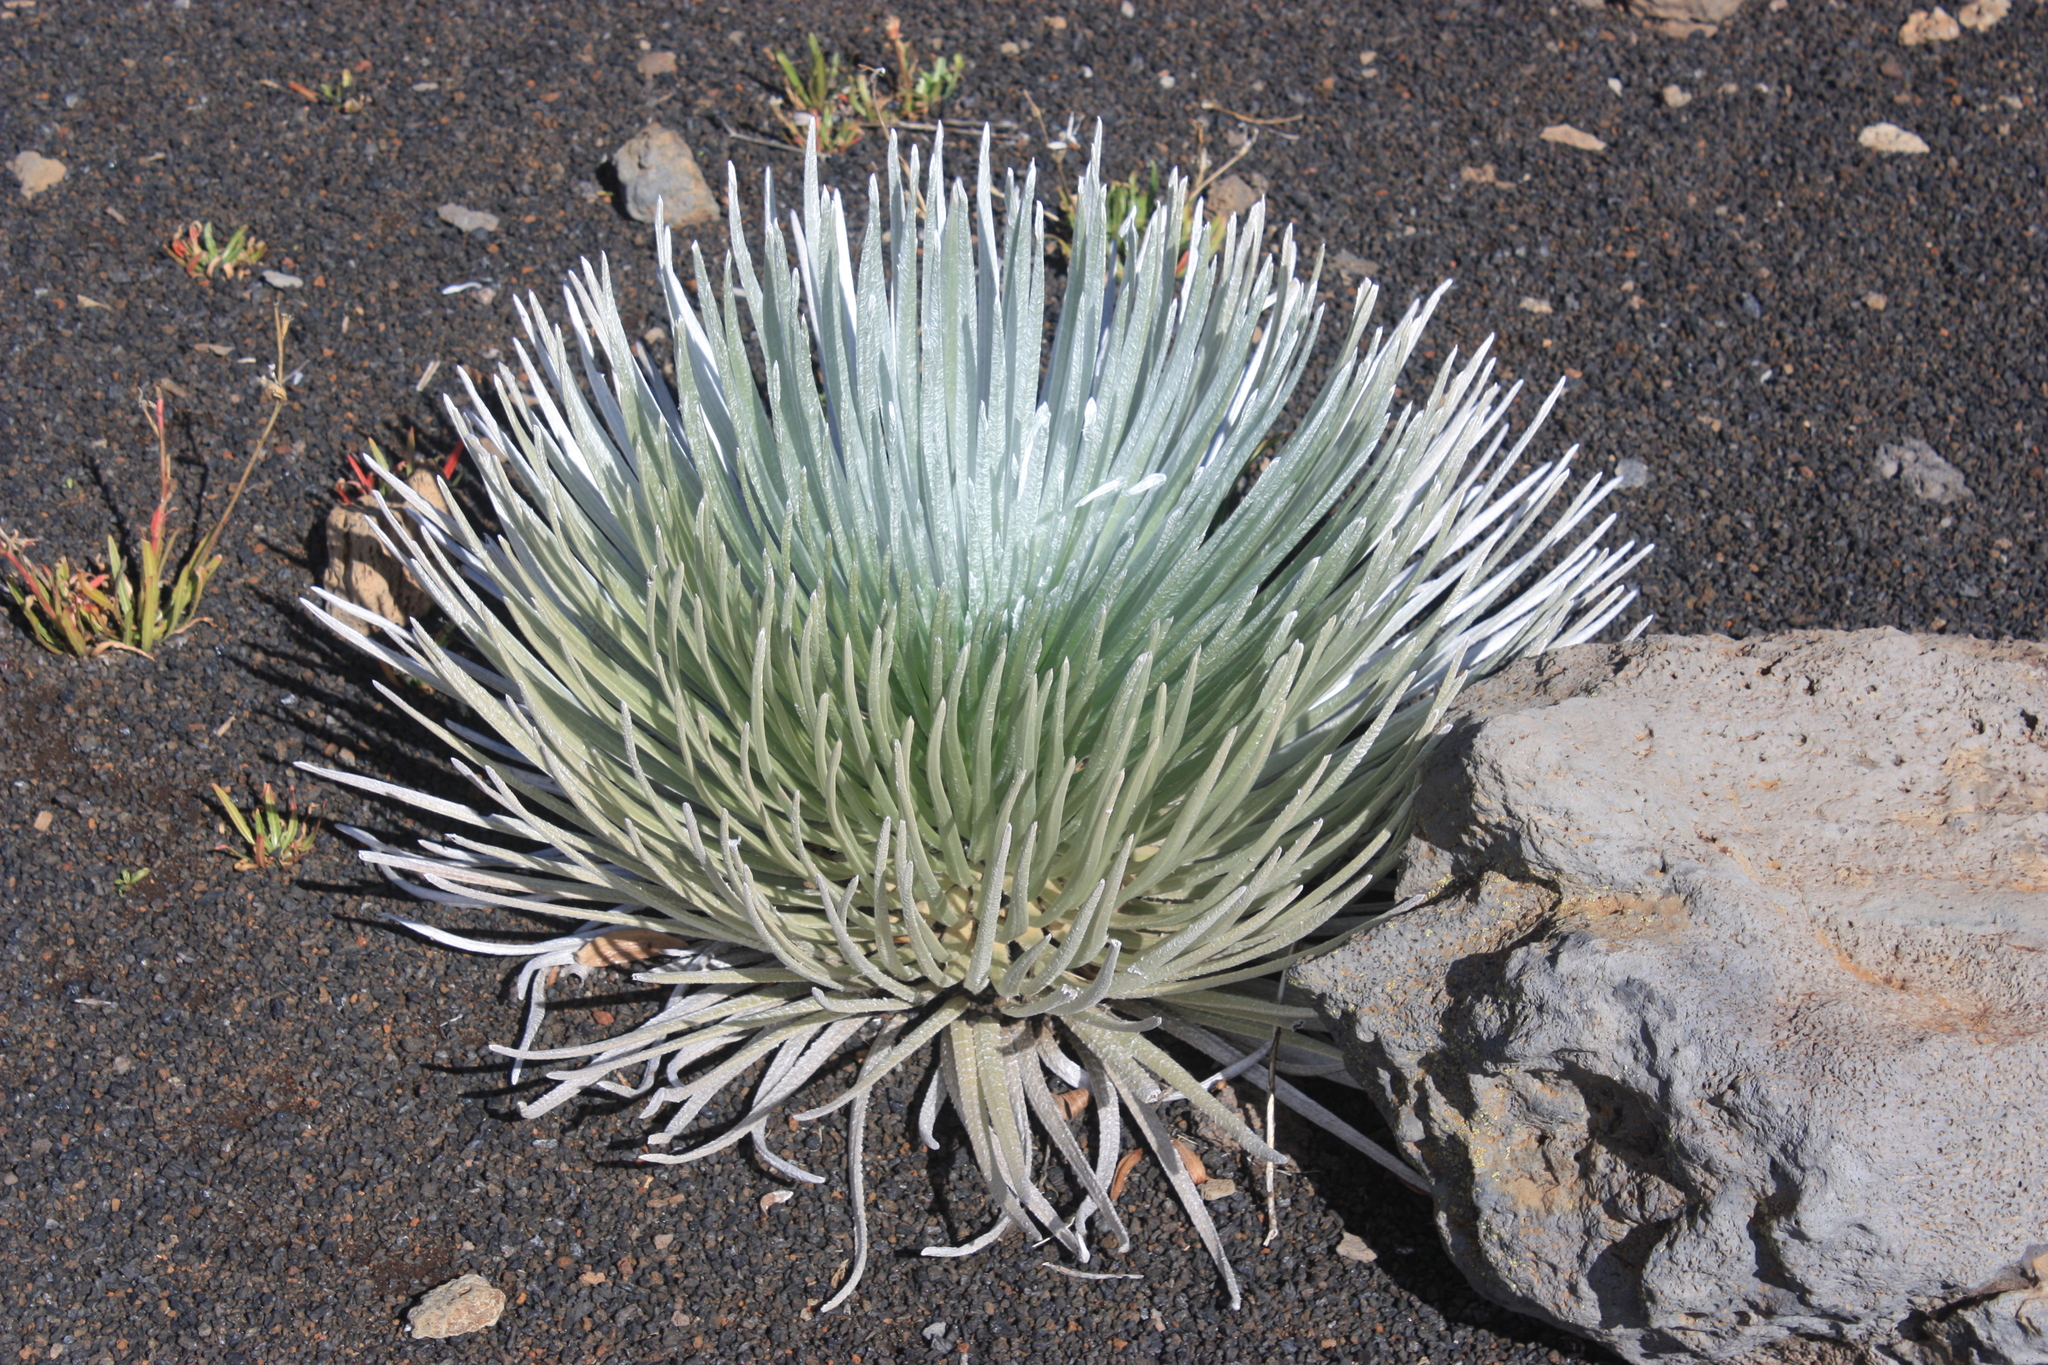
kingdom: Plantae
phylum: Tracheophyta
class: Magnoliopsida
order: Asterales
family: Asteraceae
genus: Argyroxiphium
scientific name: Argyroxiphium sandwicense
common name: Silversword
